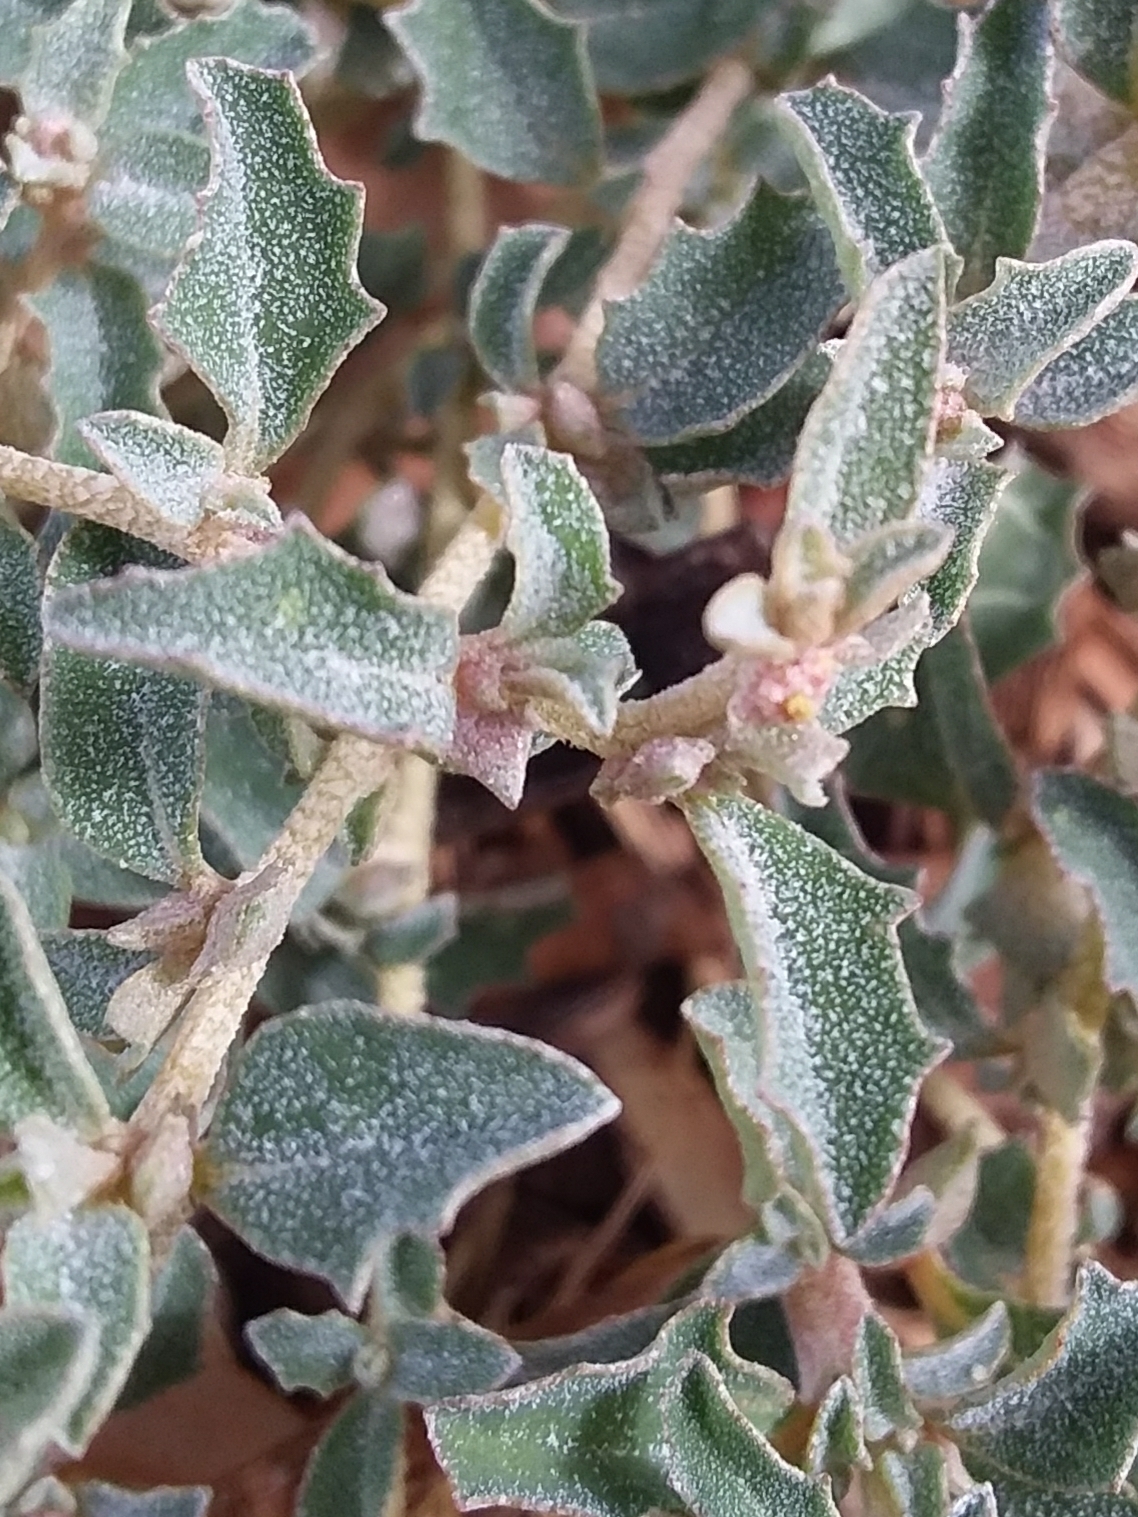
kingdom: Plantae
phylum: Tracheophyta
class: Magnoliopsida
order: Caryophyllales
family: Amaranthaceae
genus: Atriplex
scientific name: Atriplex semibaccata
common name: Australian saltbush
